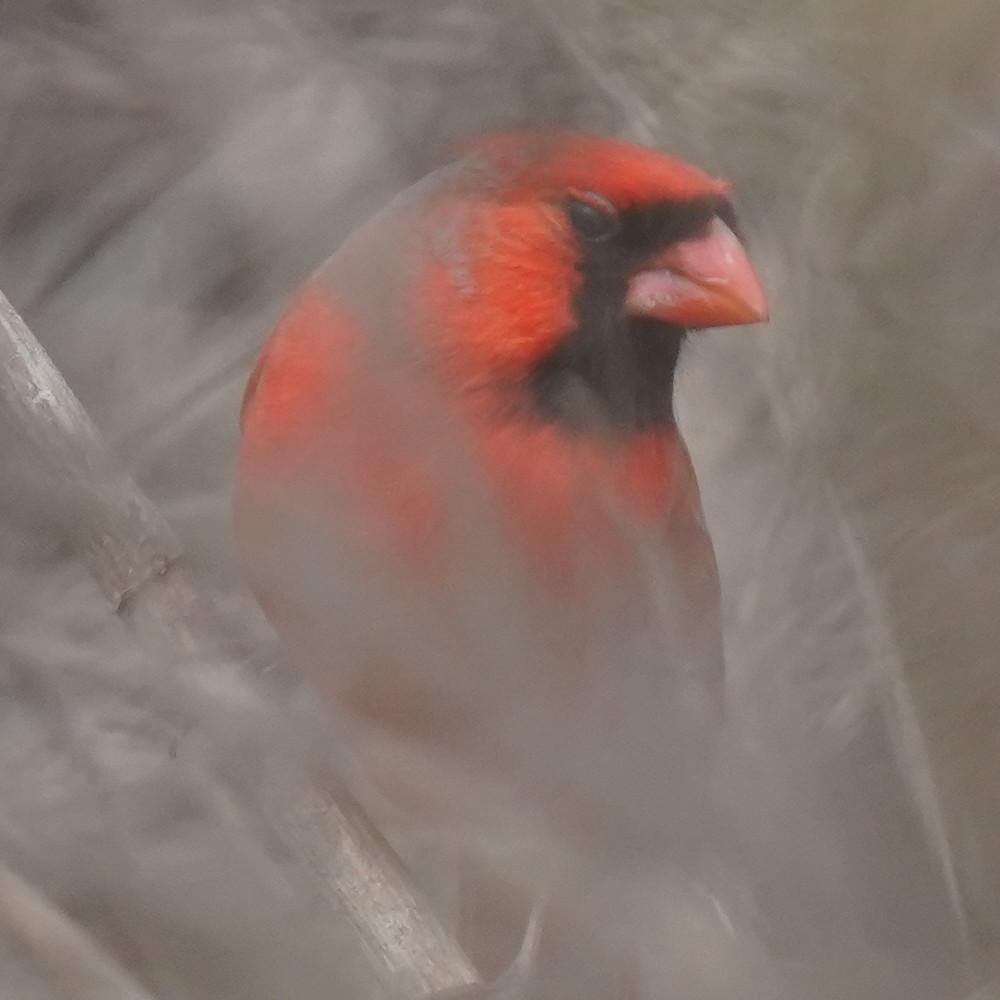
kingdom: Animalia
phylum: Chordata
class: Aves
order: Passeriformes
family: Cardinalidae
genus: Cardinalis
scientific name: Cardinalis cardinalis
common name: Northern cardinal
